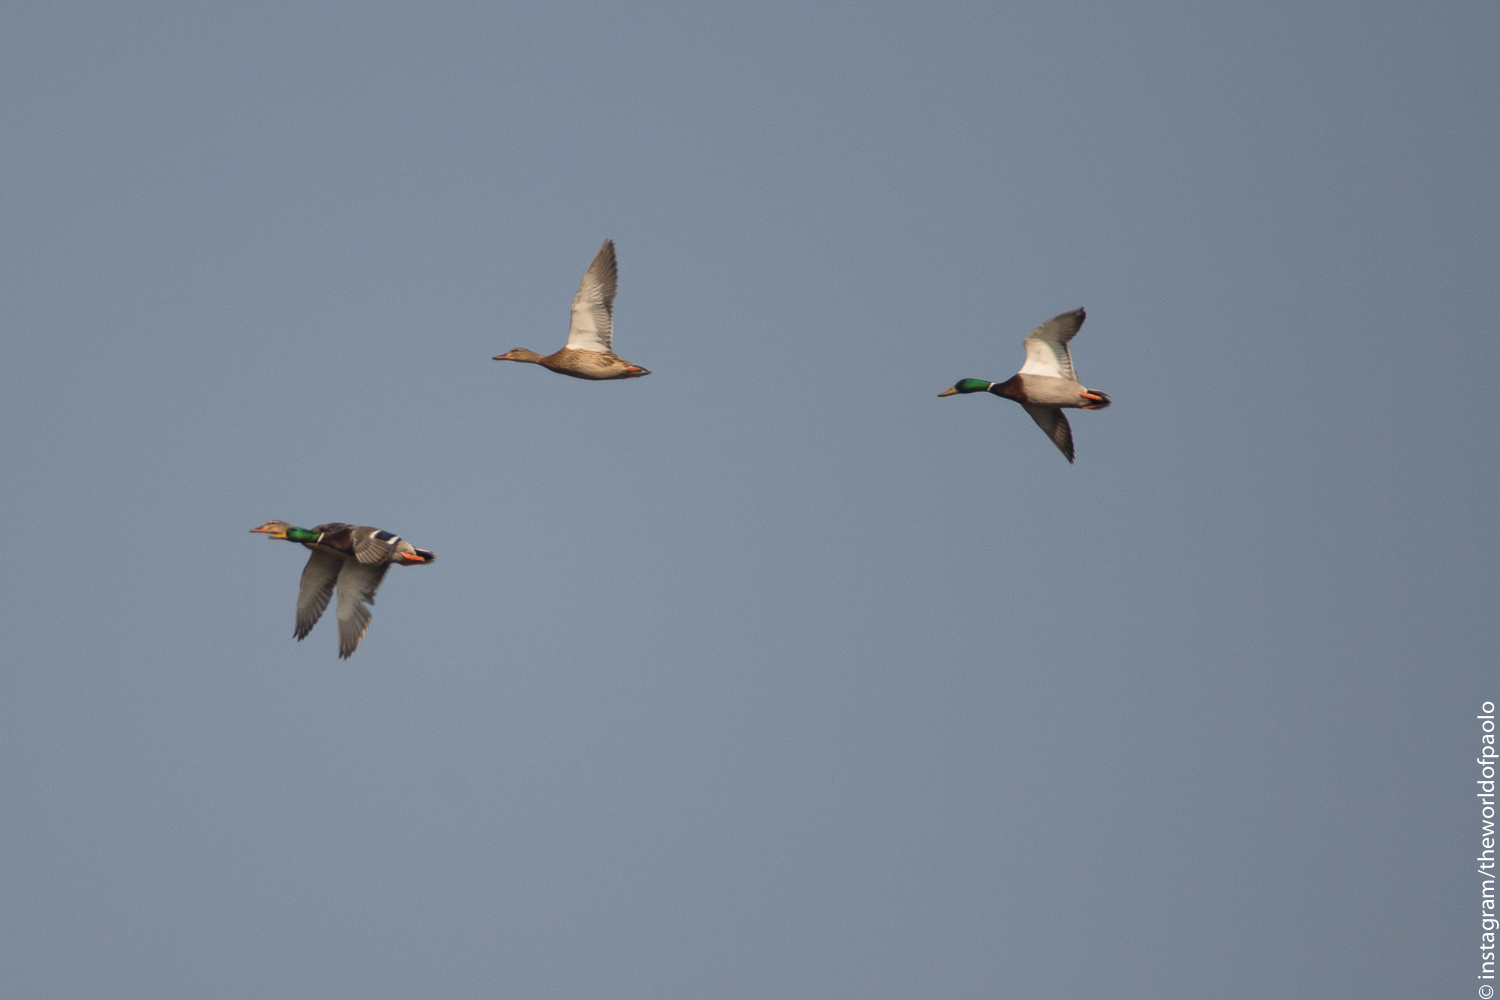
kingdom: Animalia
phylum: Chordata
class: Aves
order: Anseriformes
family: Anatidae
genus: Anas
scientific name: Anas platyrhynchos
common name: Mallard
